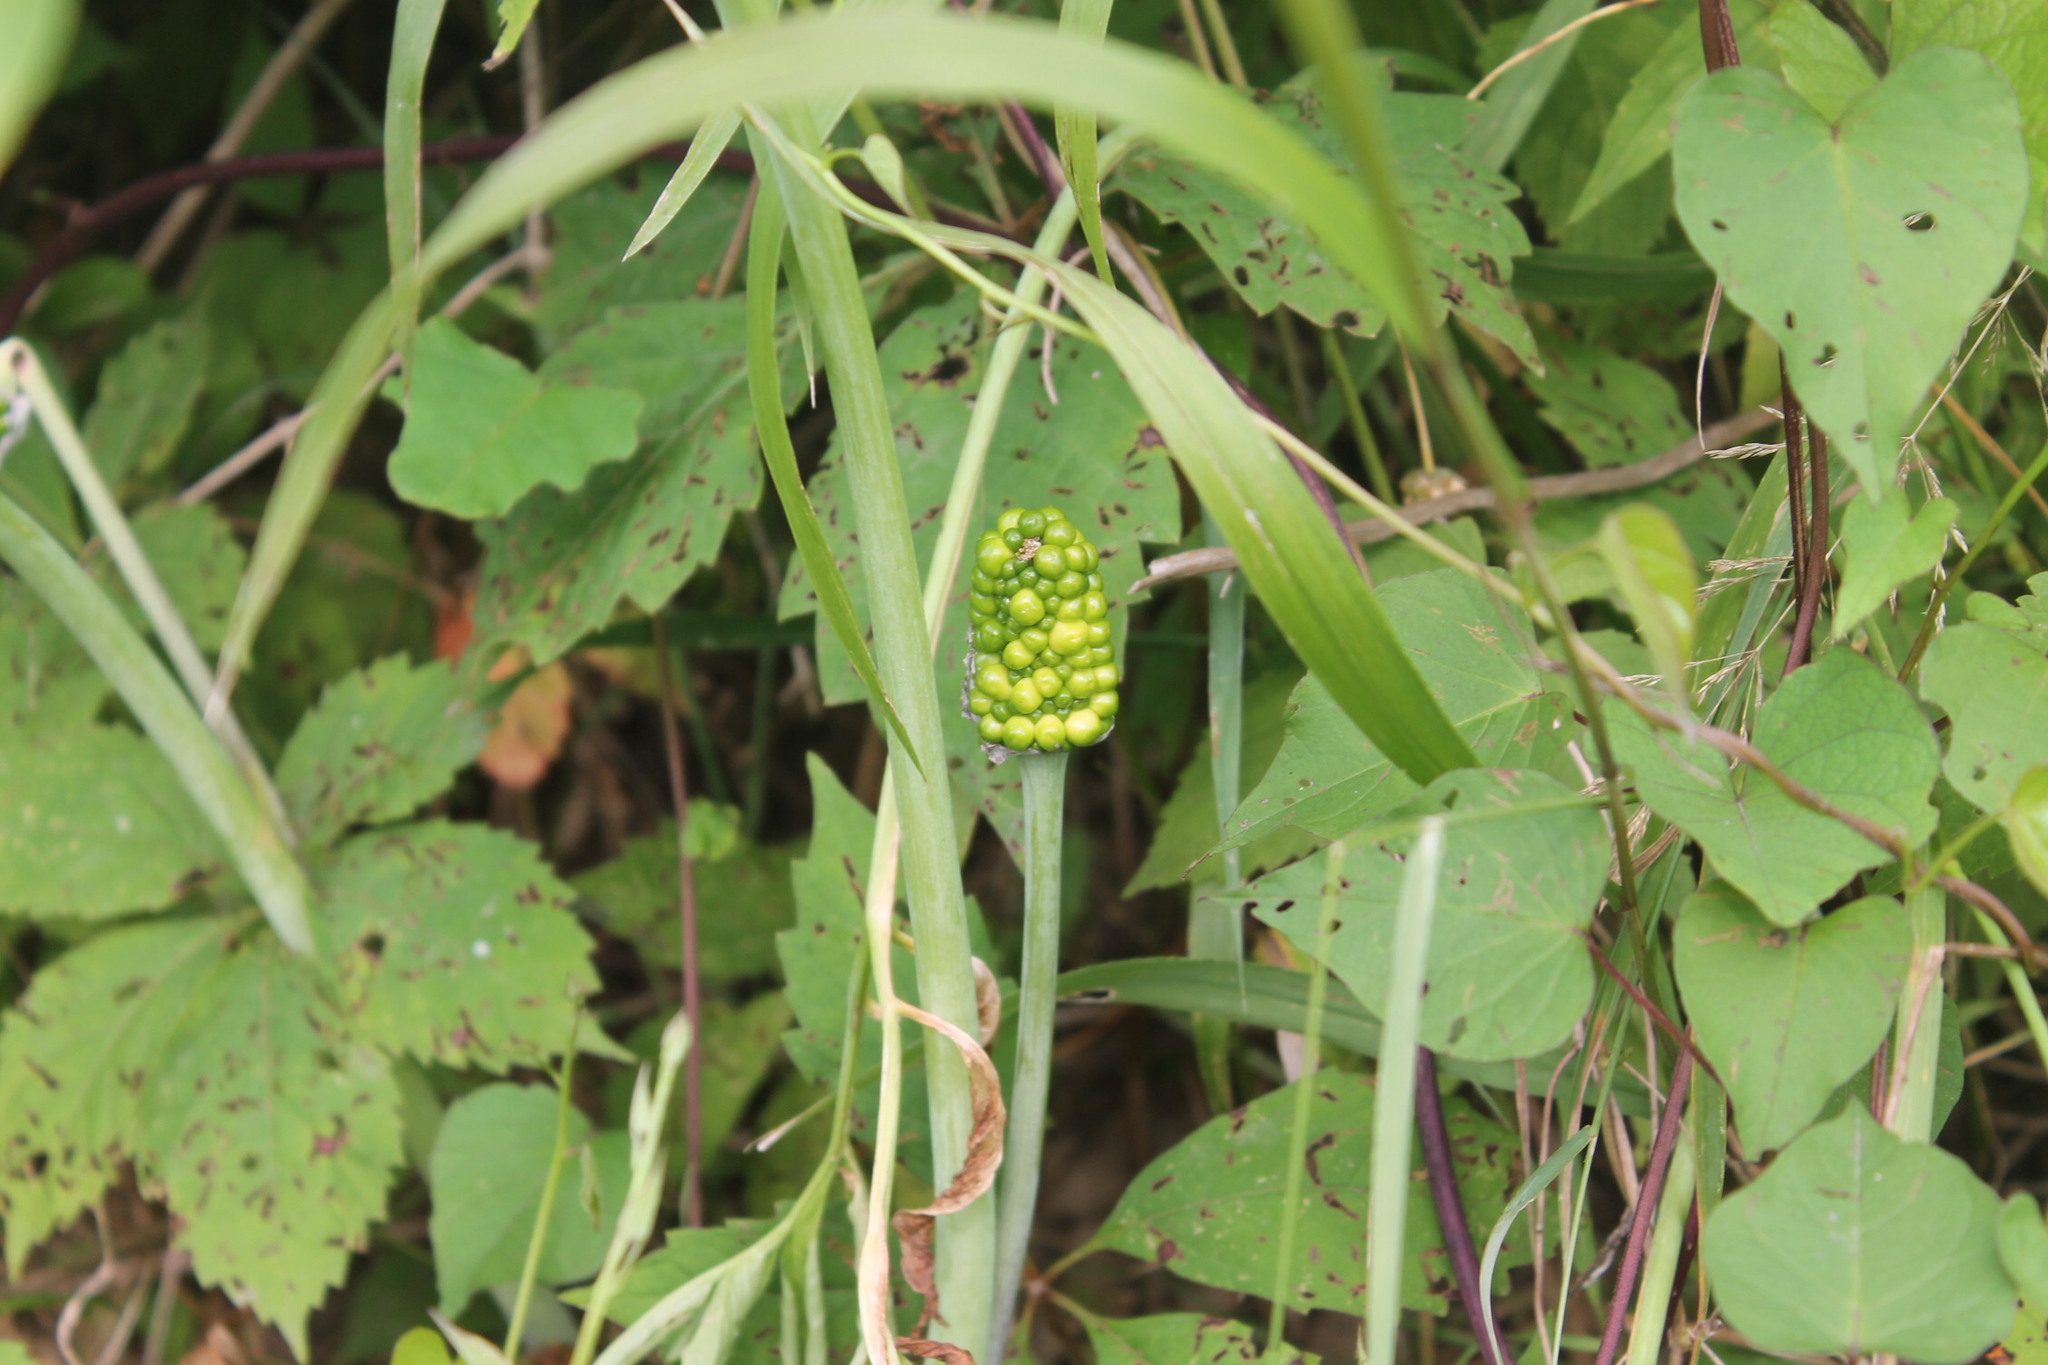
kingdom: Plantae
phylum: Tracheophyta
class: Liliopsida
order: Alismatales
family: Araceae
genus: Arisaema
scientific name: Arisaema dracontium
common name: Dragon-arum
